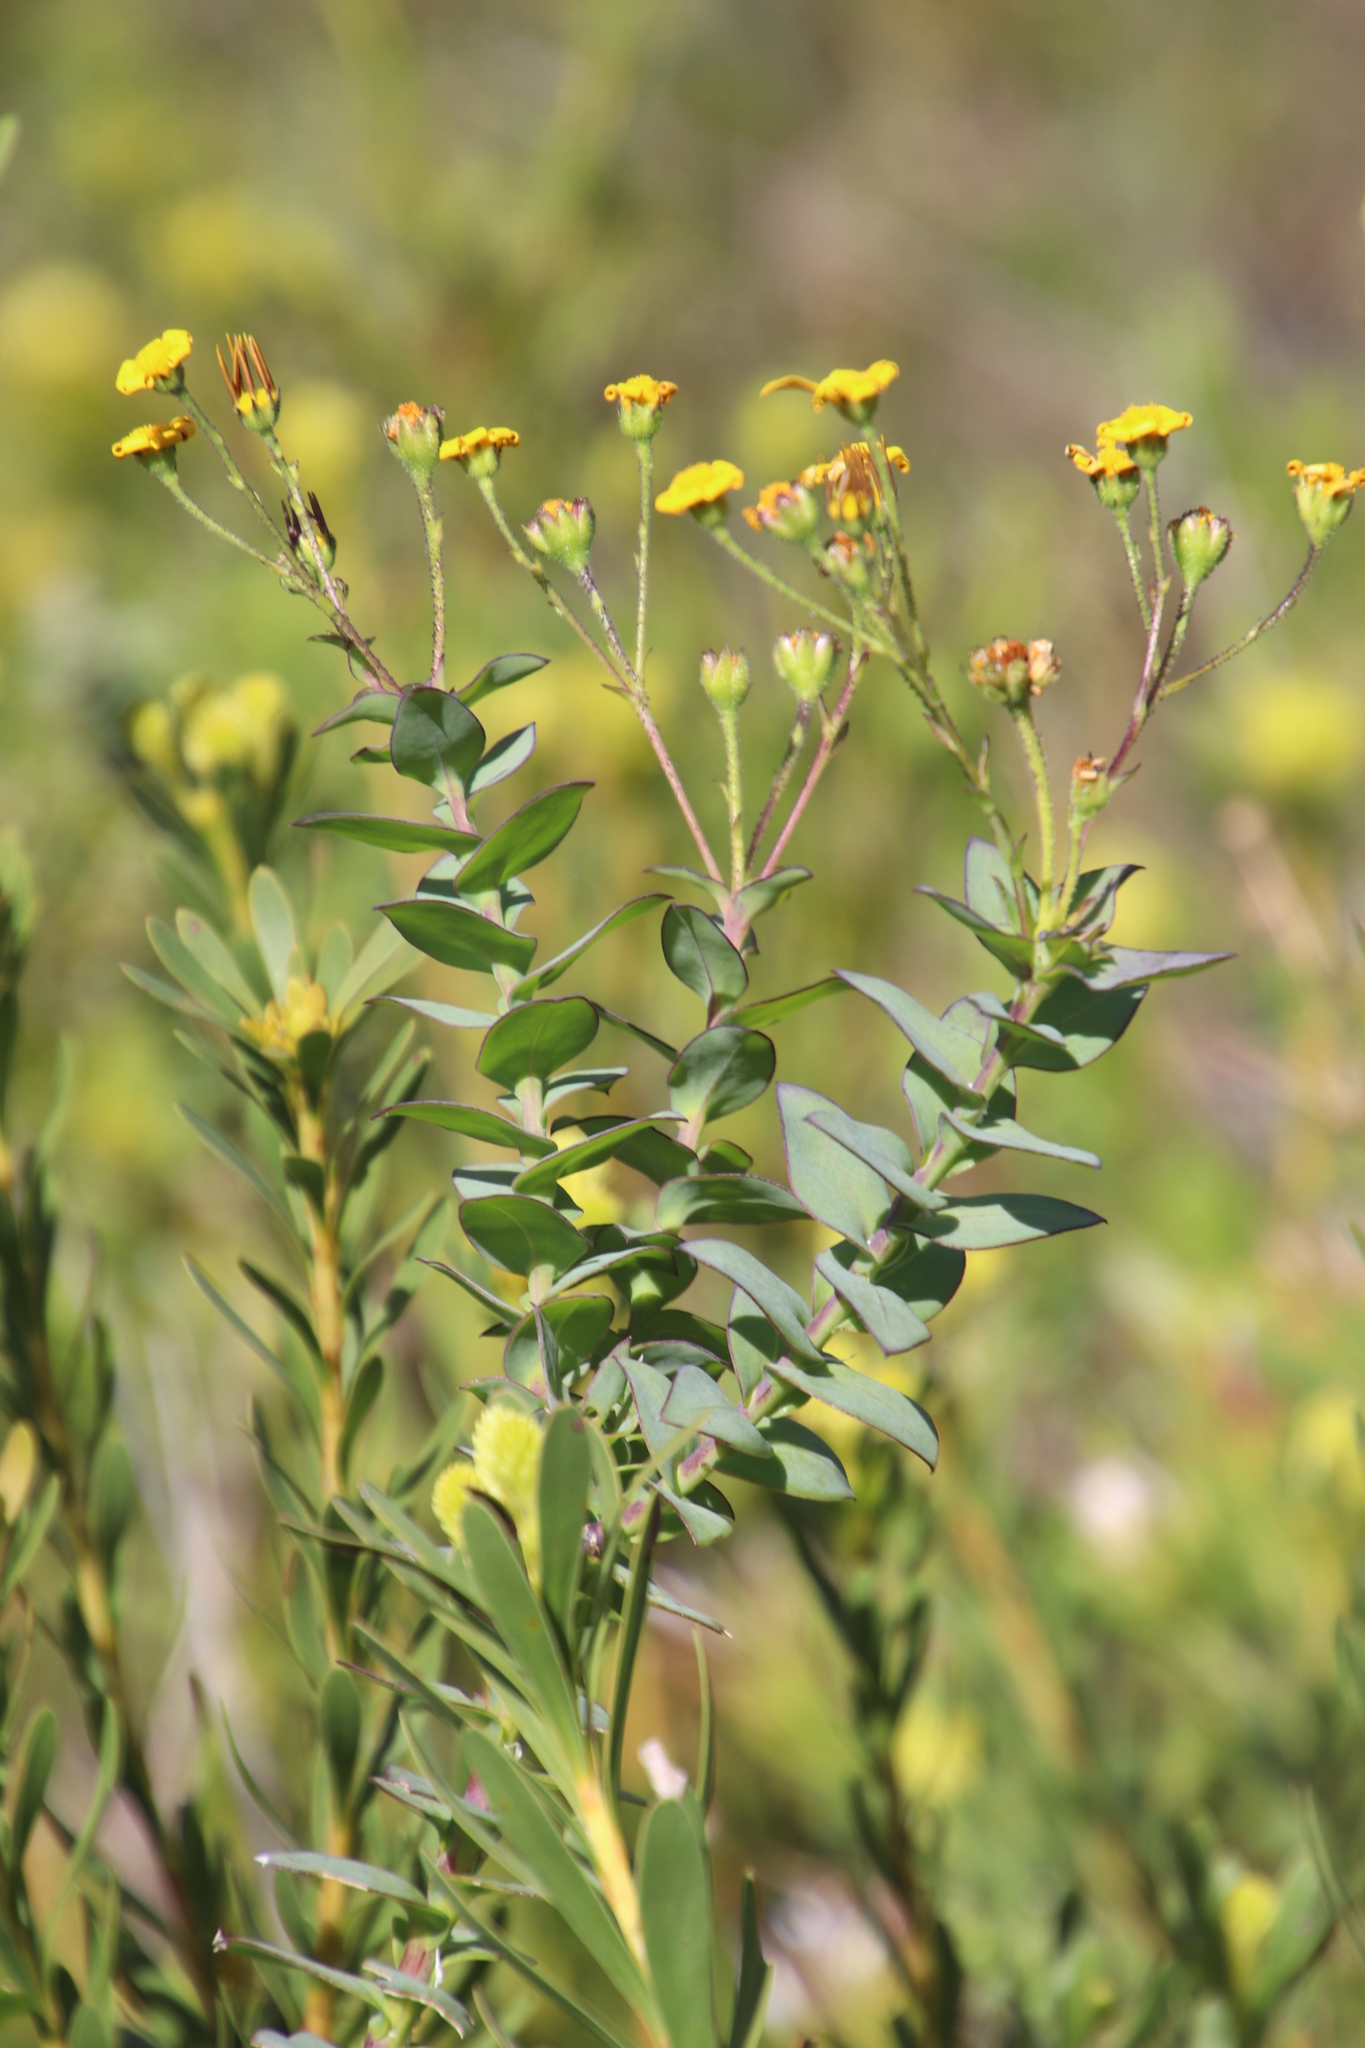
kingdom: Plantae
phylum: Tracheophyta
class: Magnoliopsida
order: Asterales
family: Asteraceae
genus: Osteospermum
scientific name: Osteospermum rotundifolium
